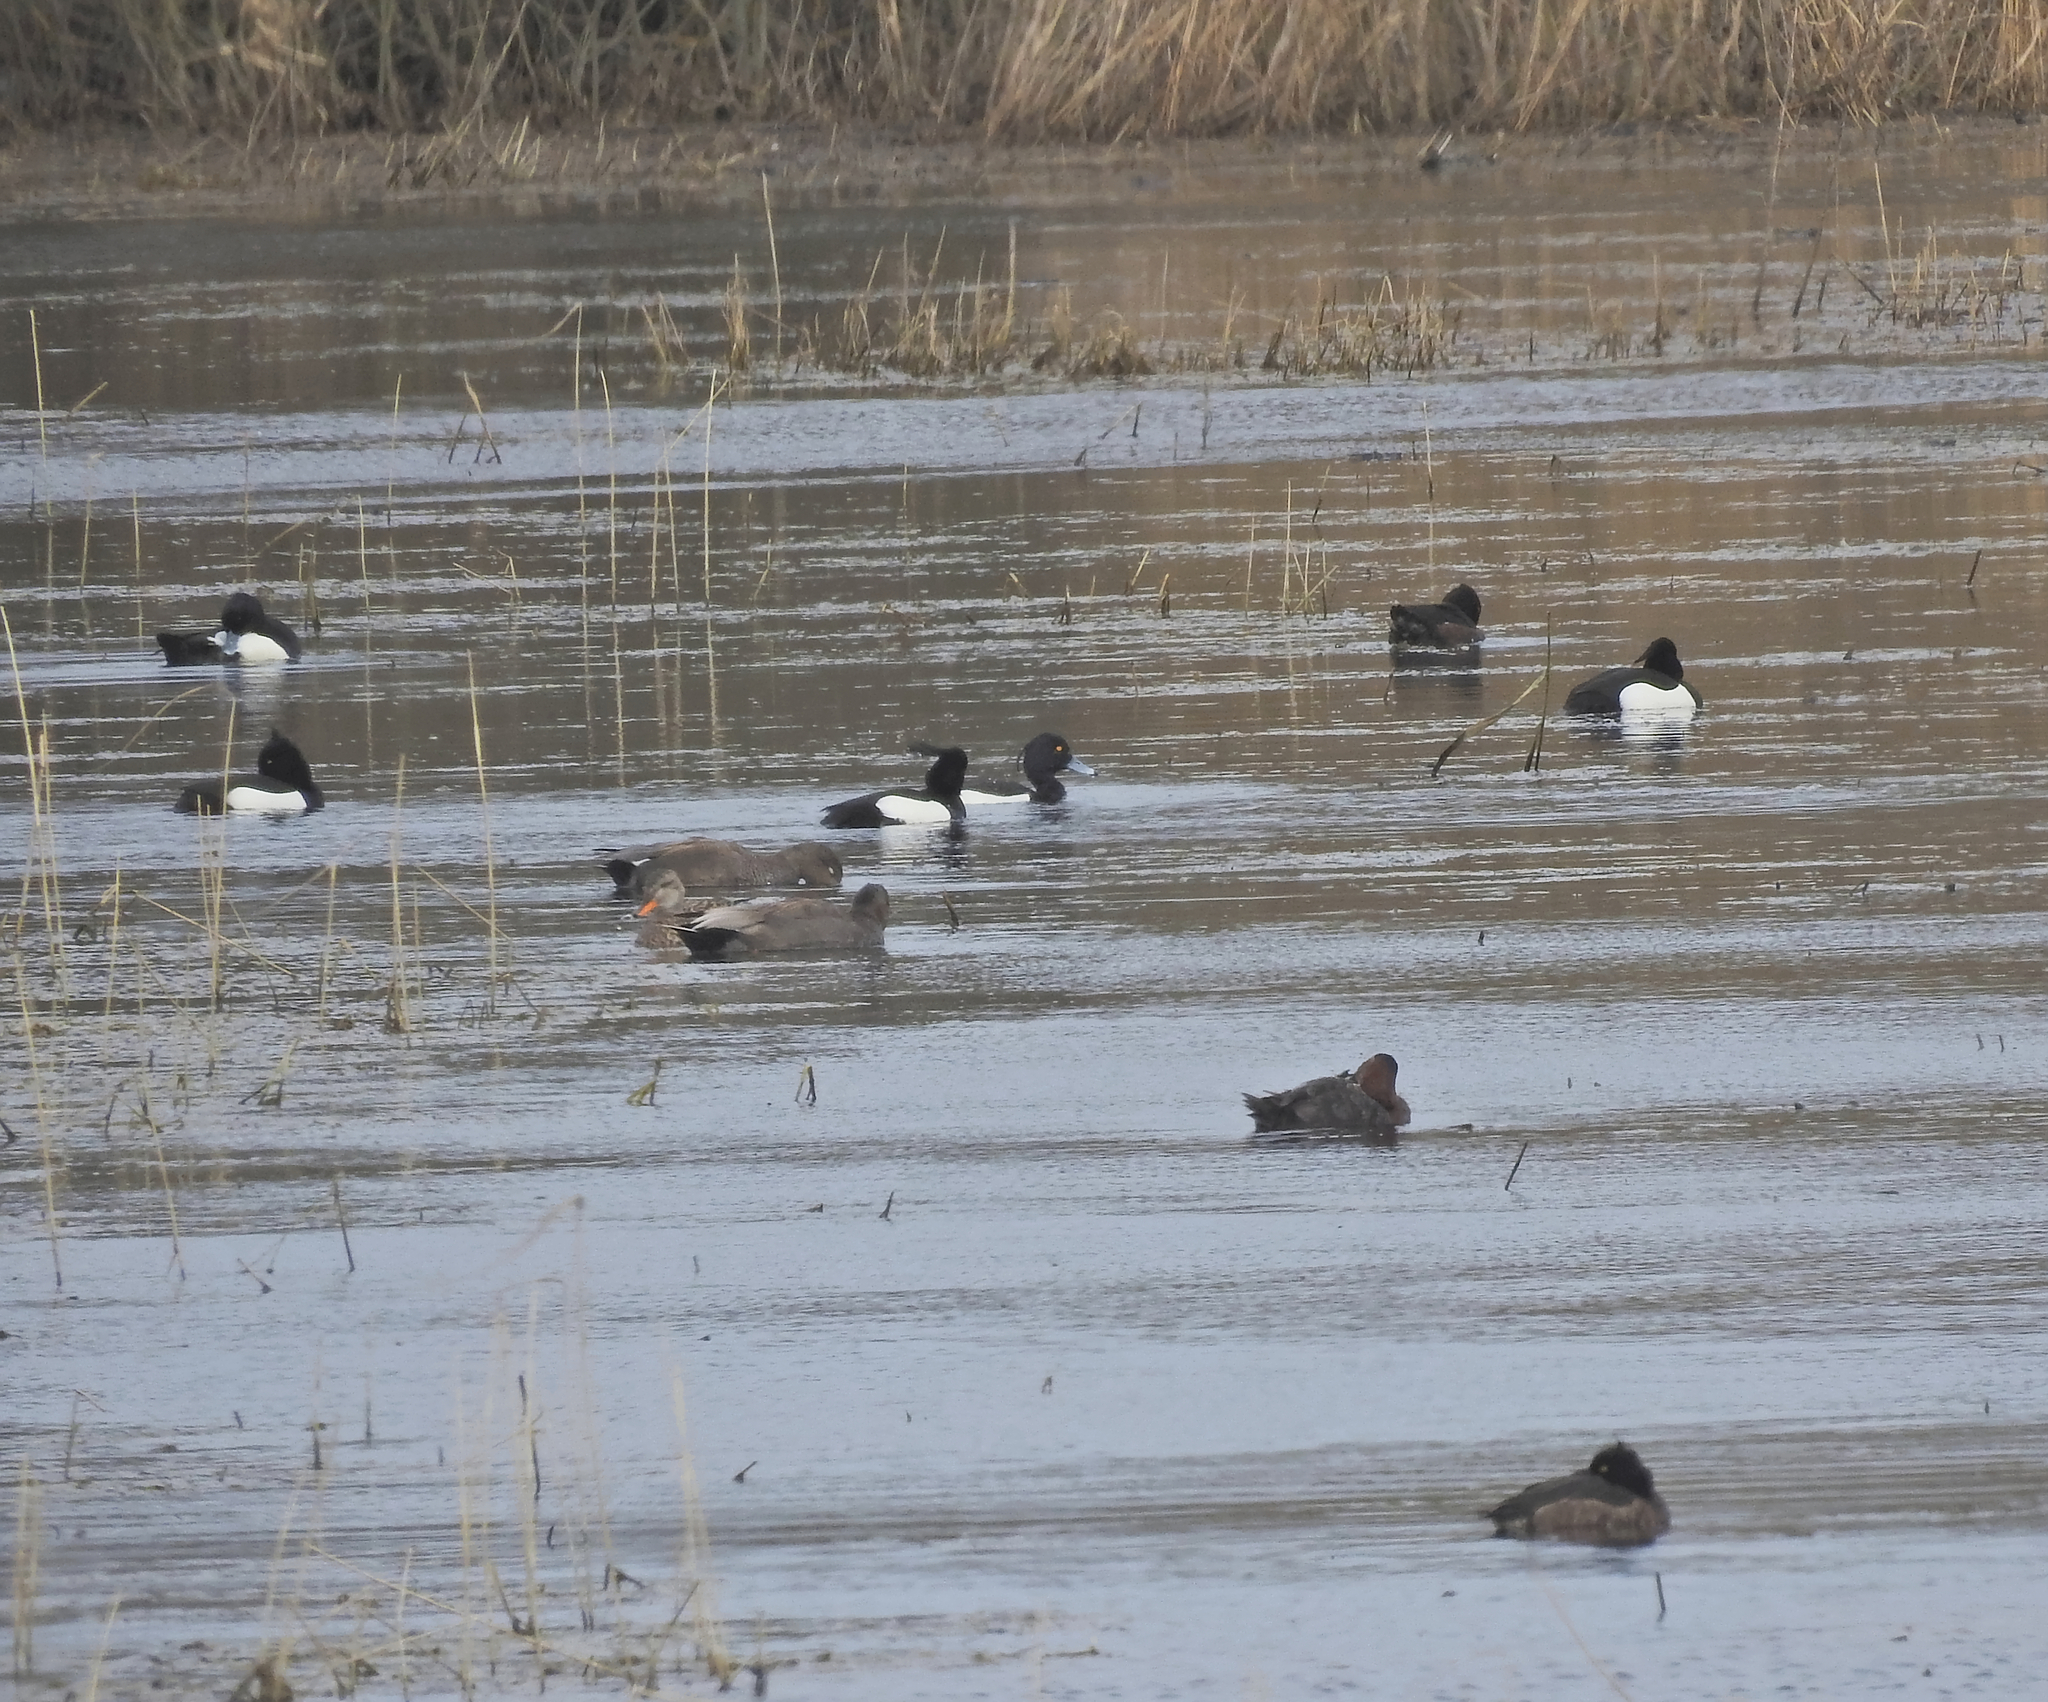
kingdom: Animalia
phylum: Chordata
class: Aves
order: Anseriformes
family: Anatidae
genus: Aythya
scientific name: Aythya fuligula
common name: Tufted duck
